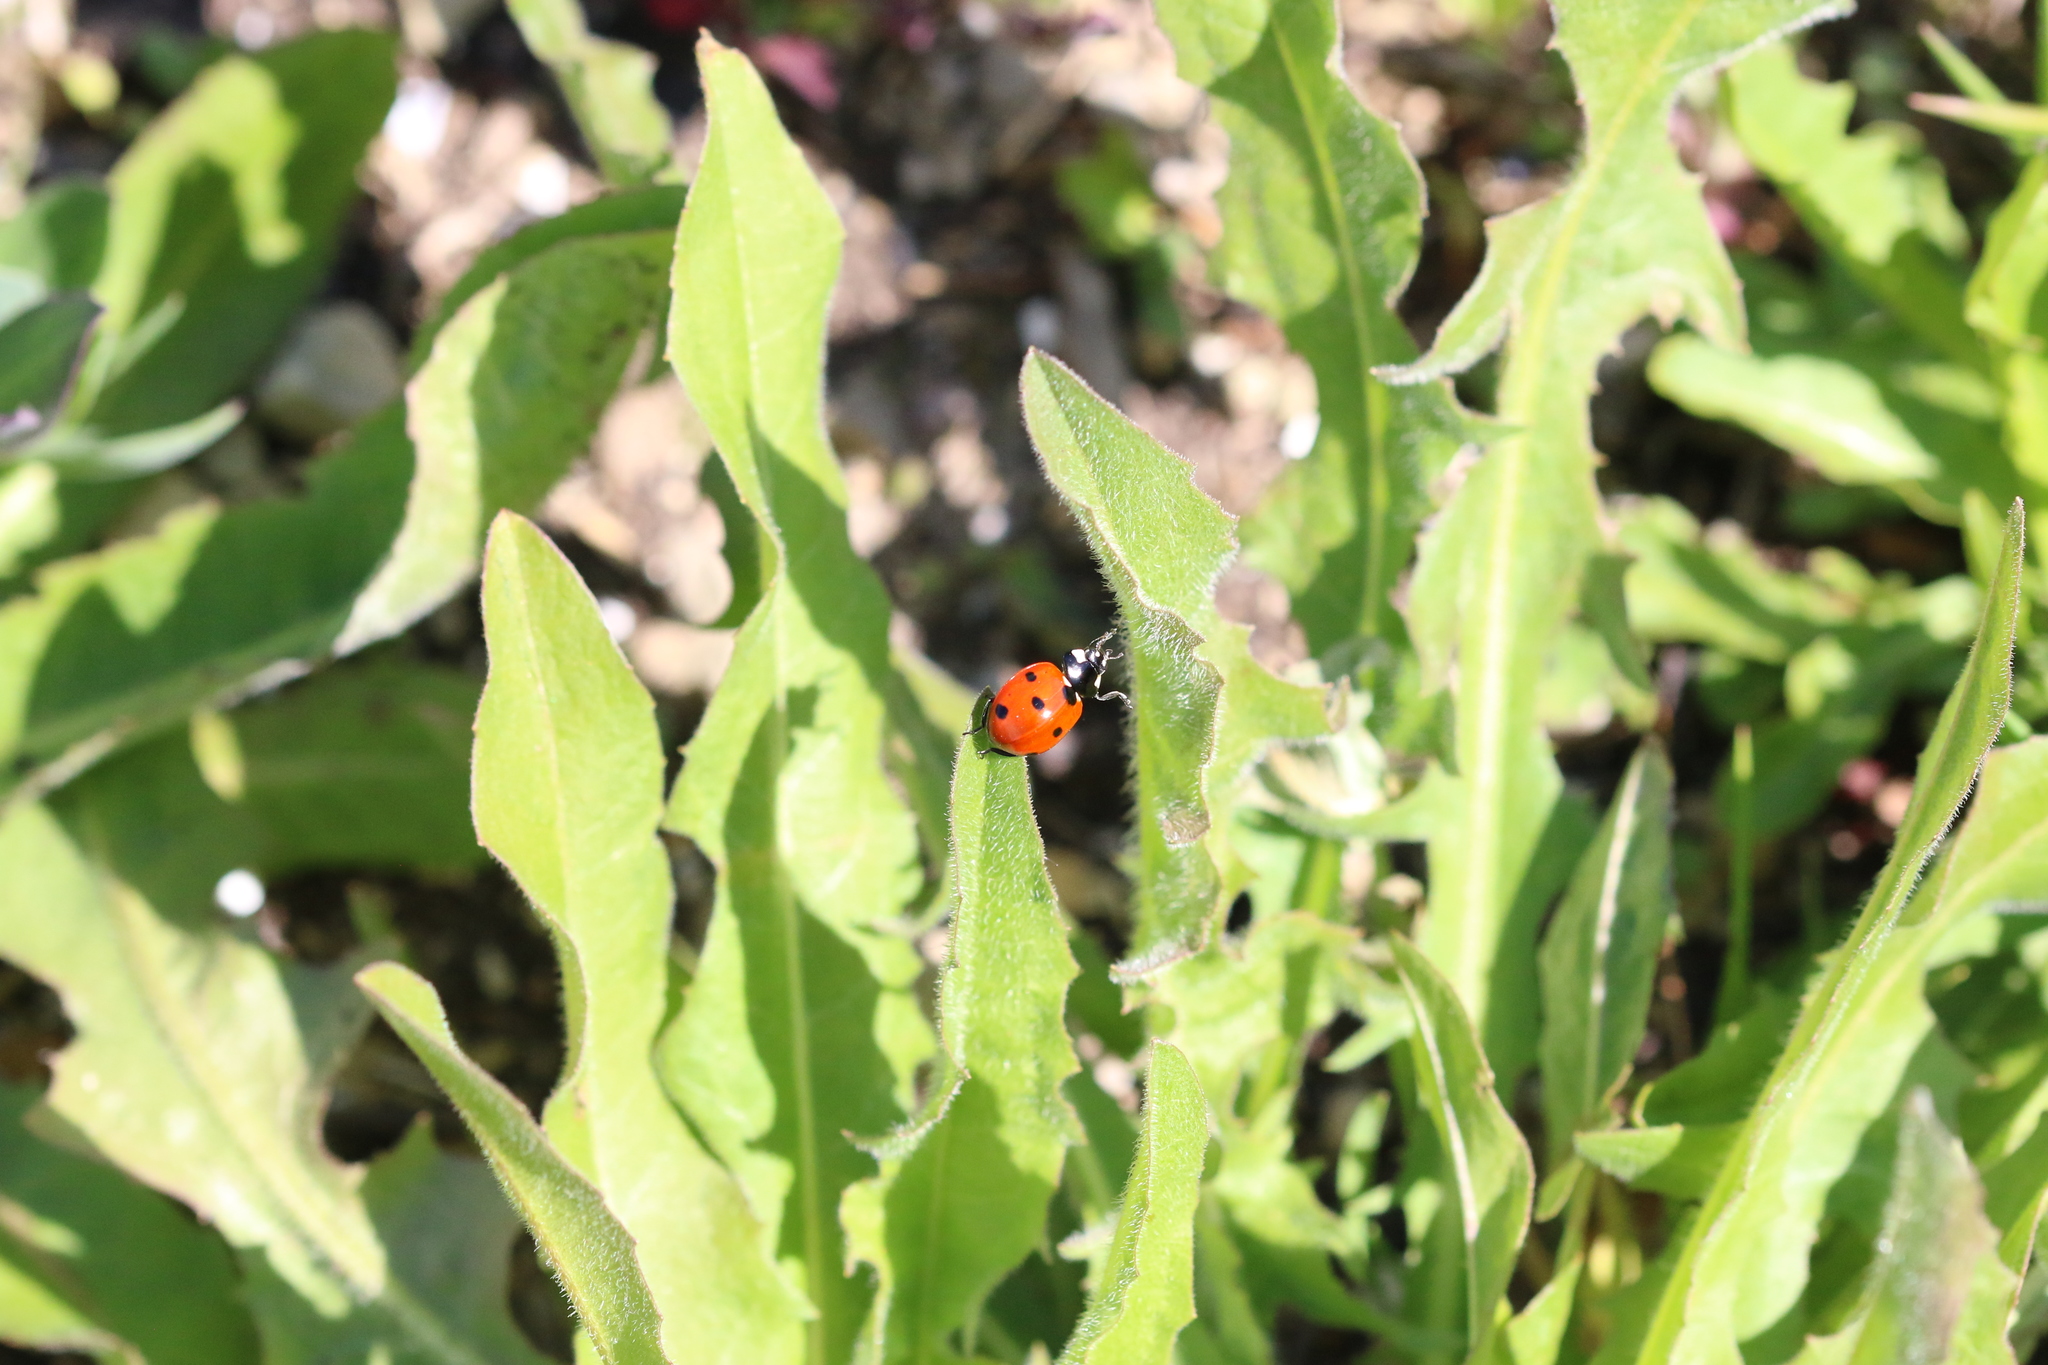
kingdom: Animalia
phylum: Arthropoda
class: Insecta
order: Coleoptera
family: Coccinellidae
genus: Coccinella
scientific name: Coccinella septempunctata
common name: Sevenspotted lady beetle
